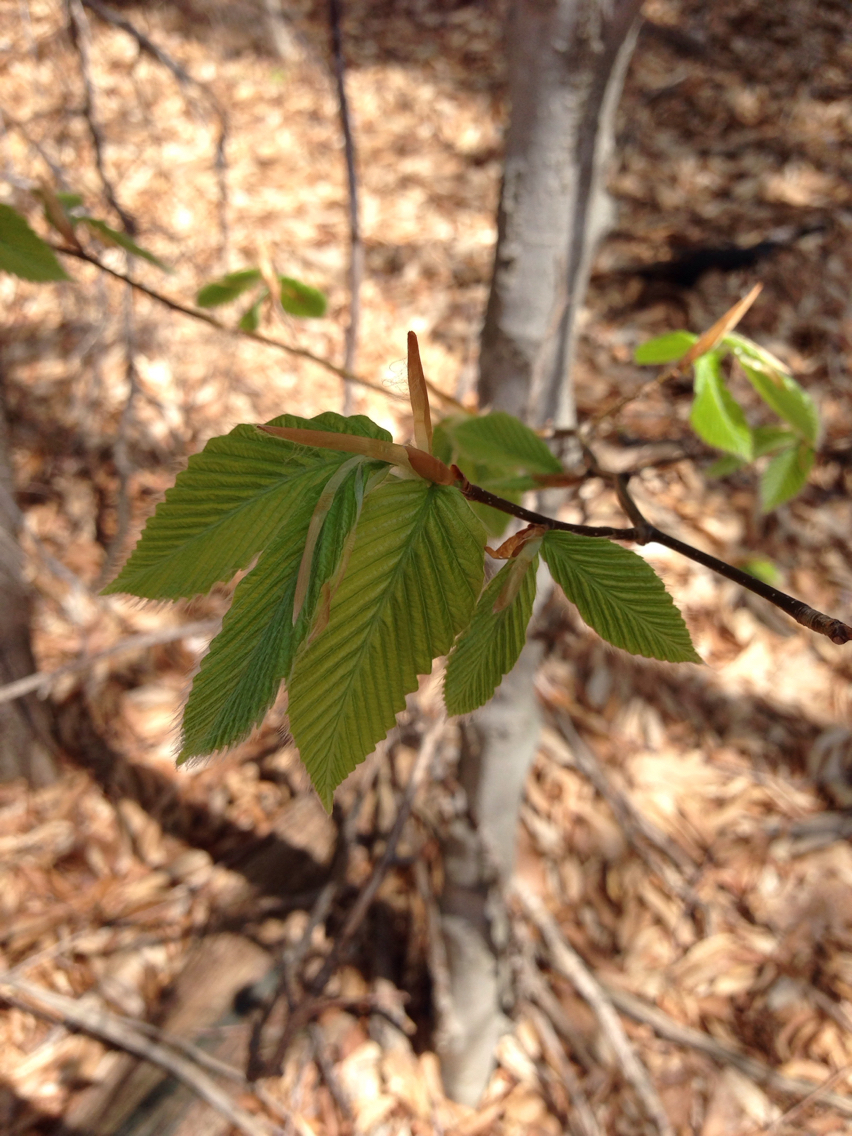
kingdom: Plantae
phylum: Tracheophyta
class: Magnoliopsida
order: Fagales
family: Fagaceae
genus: Fagus
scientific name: Fagus grandifolia
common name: American beech
